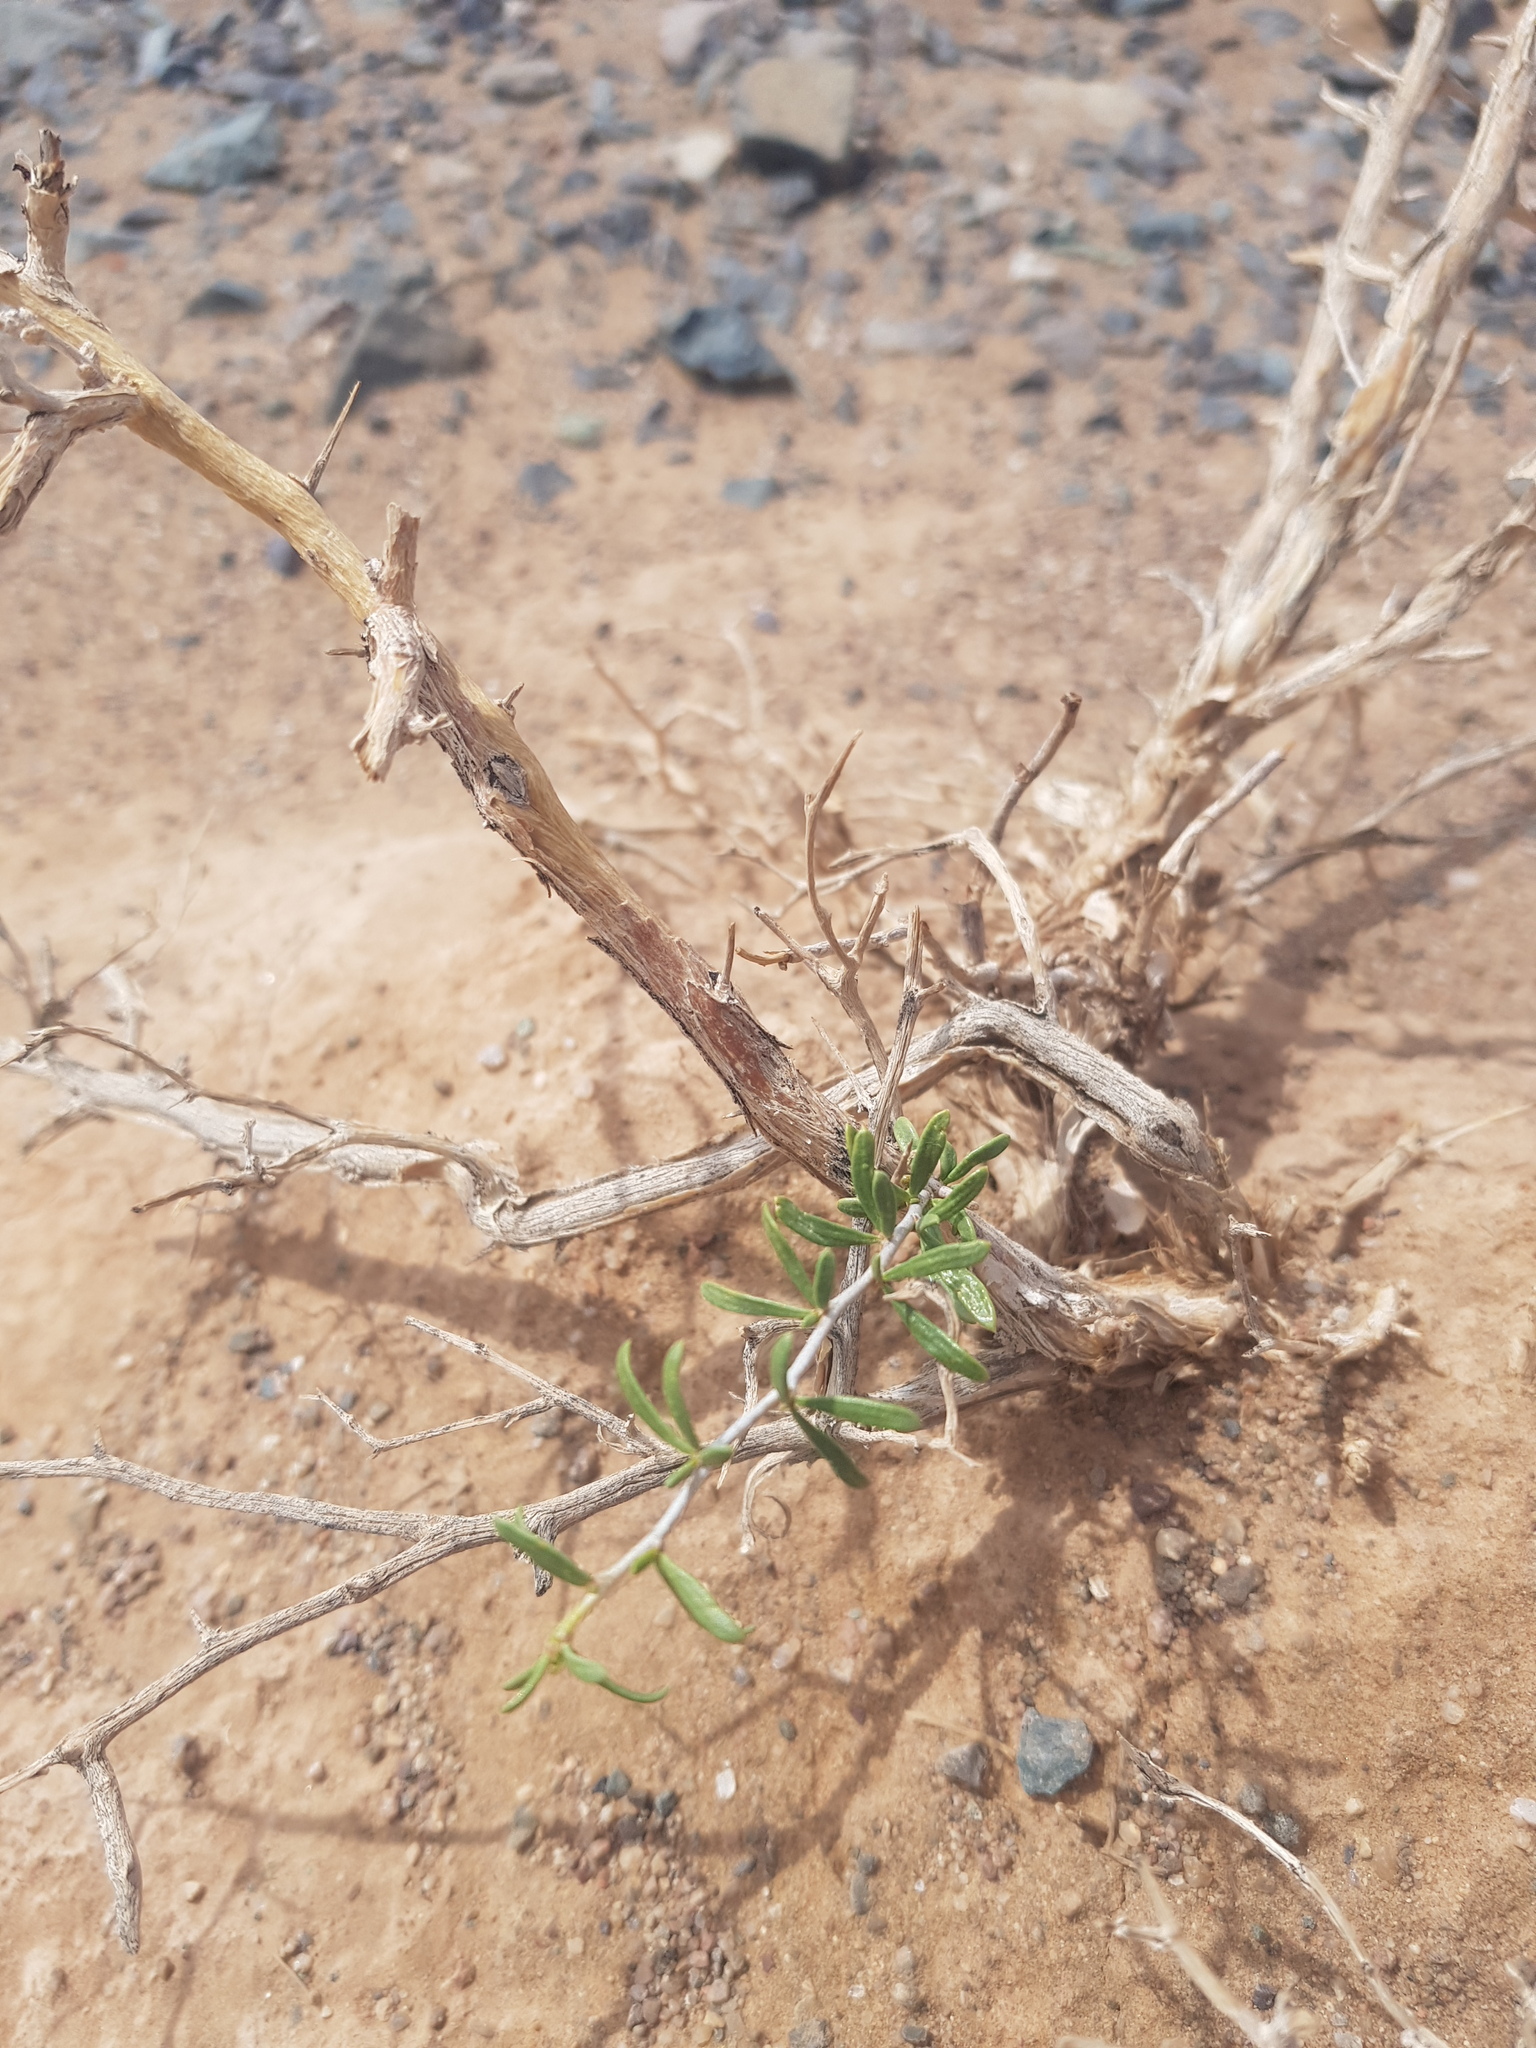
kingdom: Plantae
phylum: Tracheophyta
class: Magnoliopsida
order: Zygophyllales
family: Zygophyllaceae
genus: Zygophyllum
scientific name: Zygophyllum xanthoxylum
